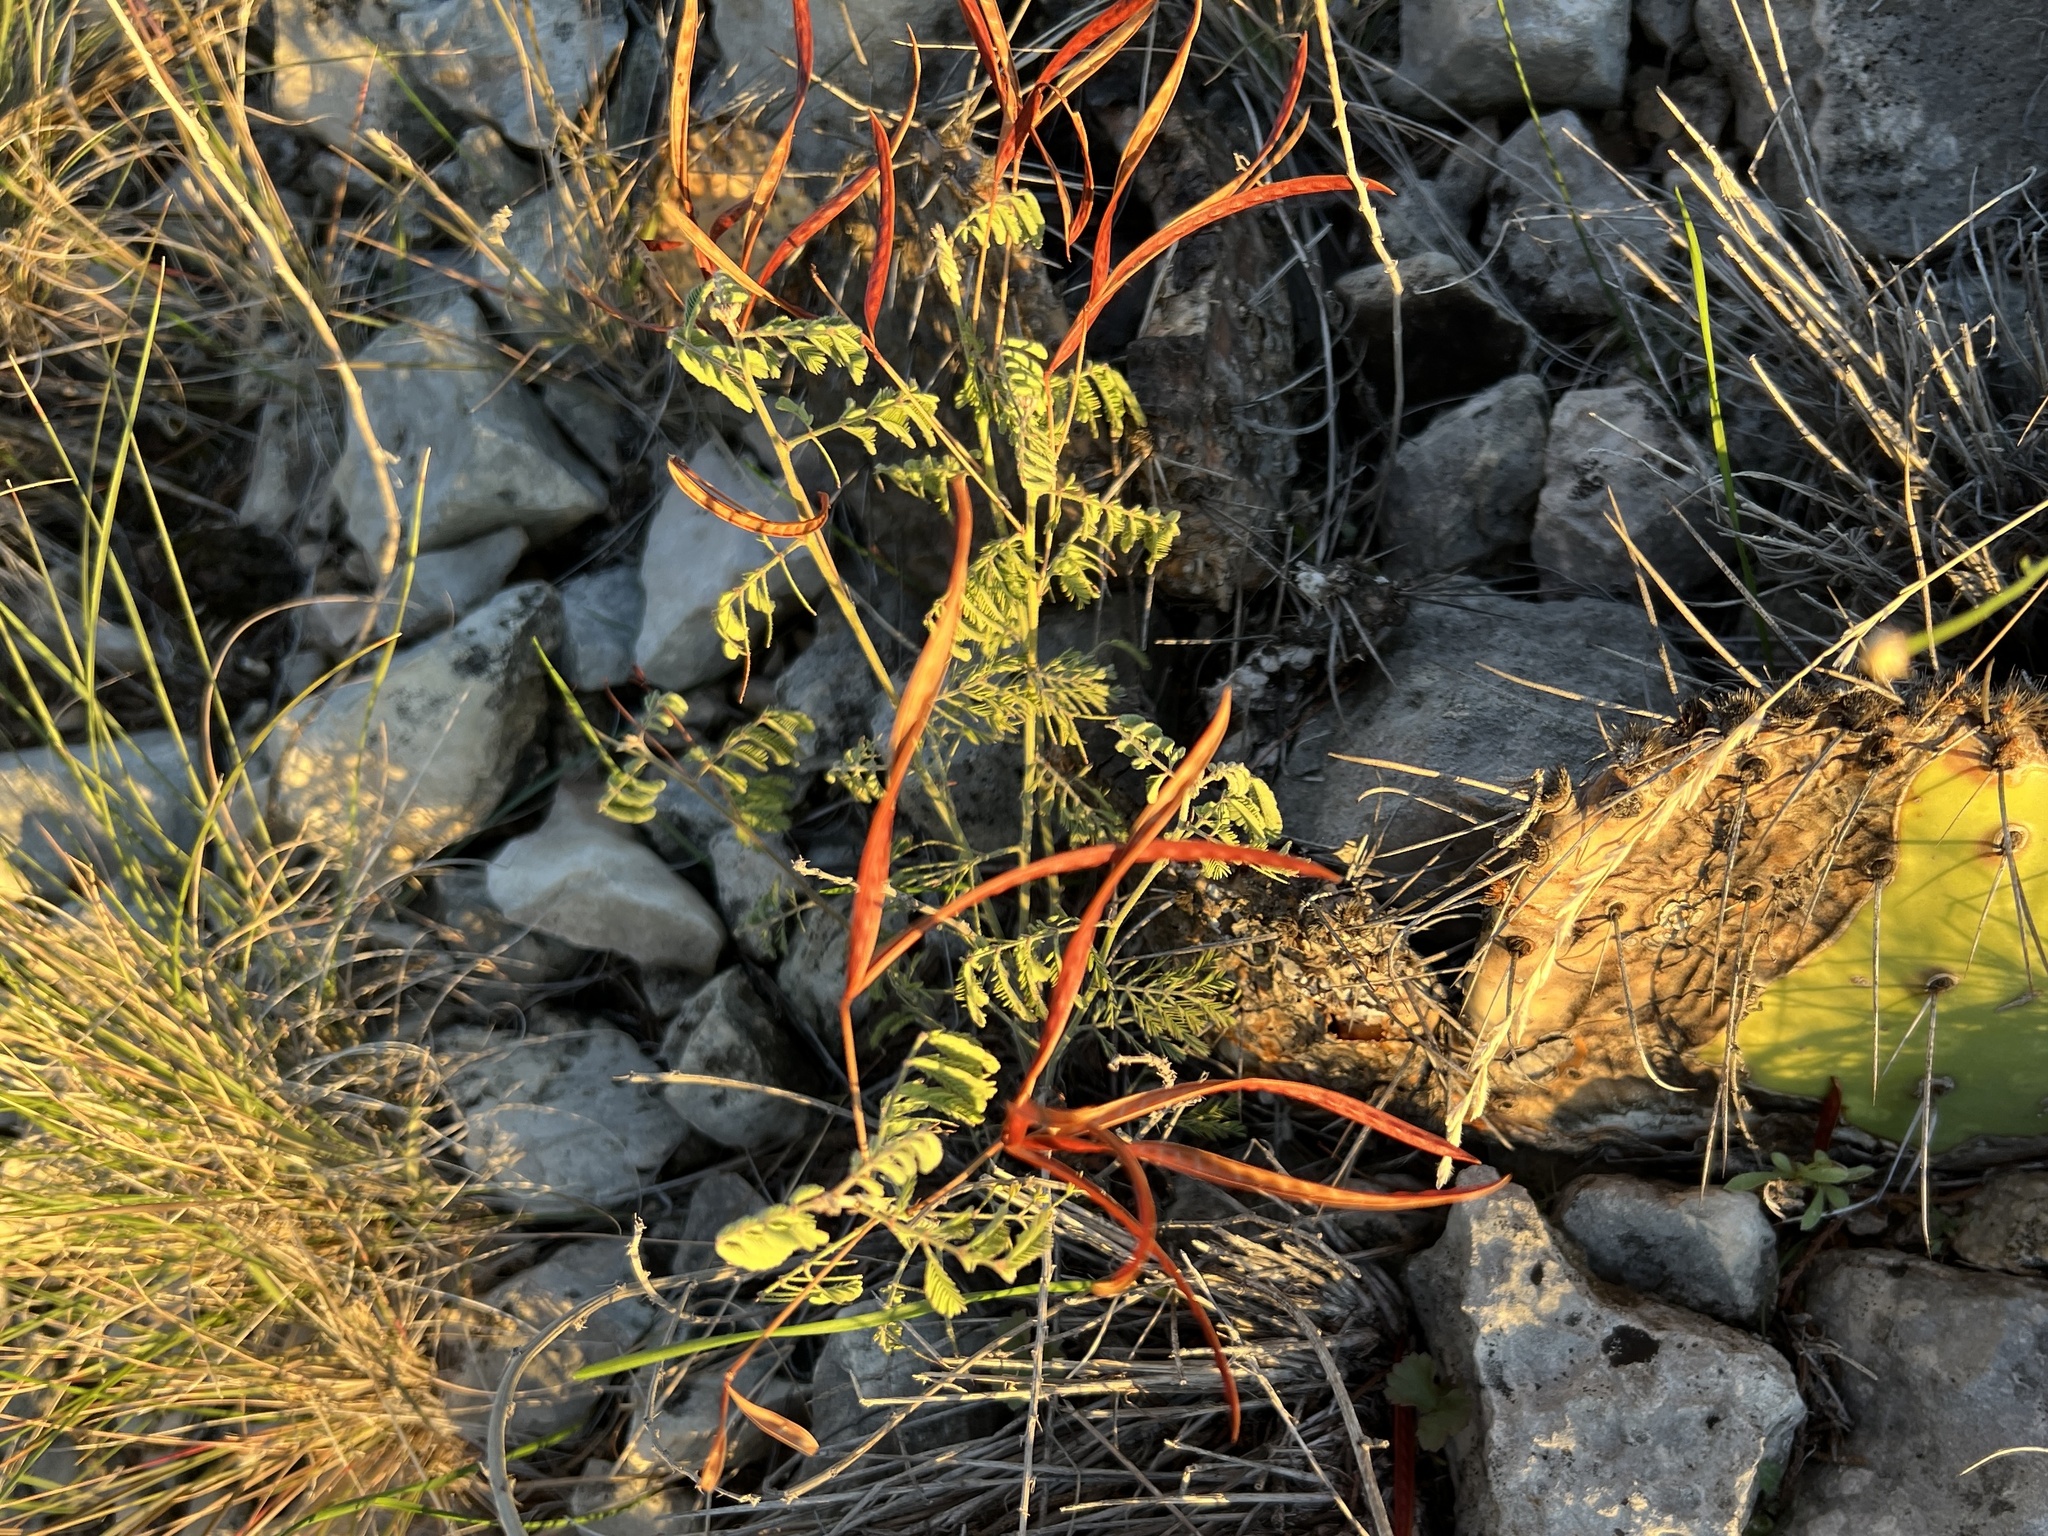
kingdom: Plantae
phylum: Tracheophyta
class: Magnoliopsida
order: Fabales
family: Fabaceae
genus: Sesbania
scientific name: Sesbania herbacea
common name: Bigpod sesbania
